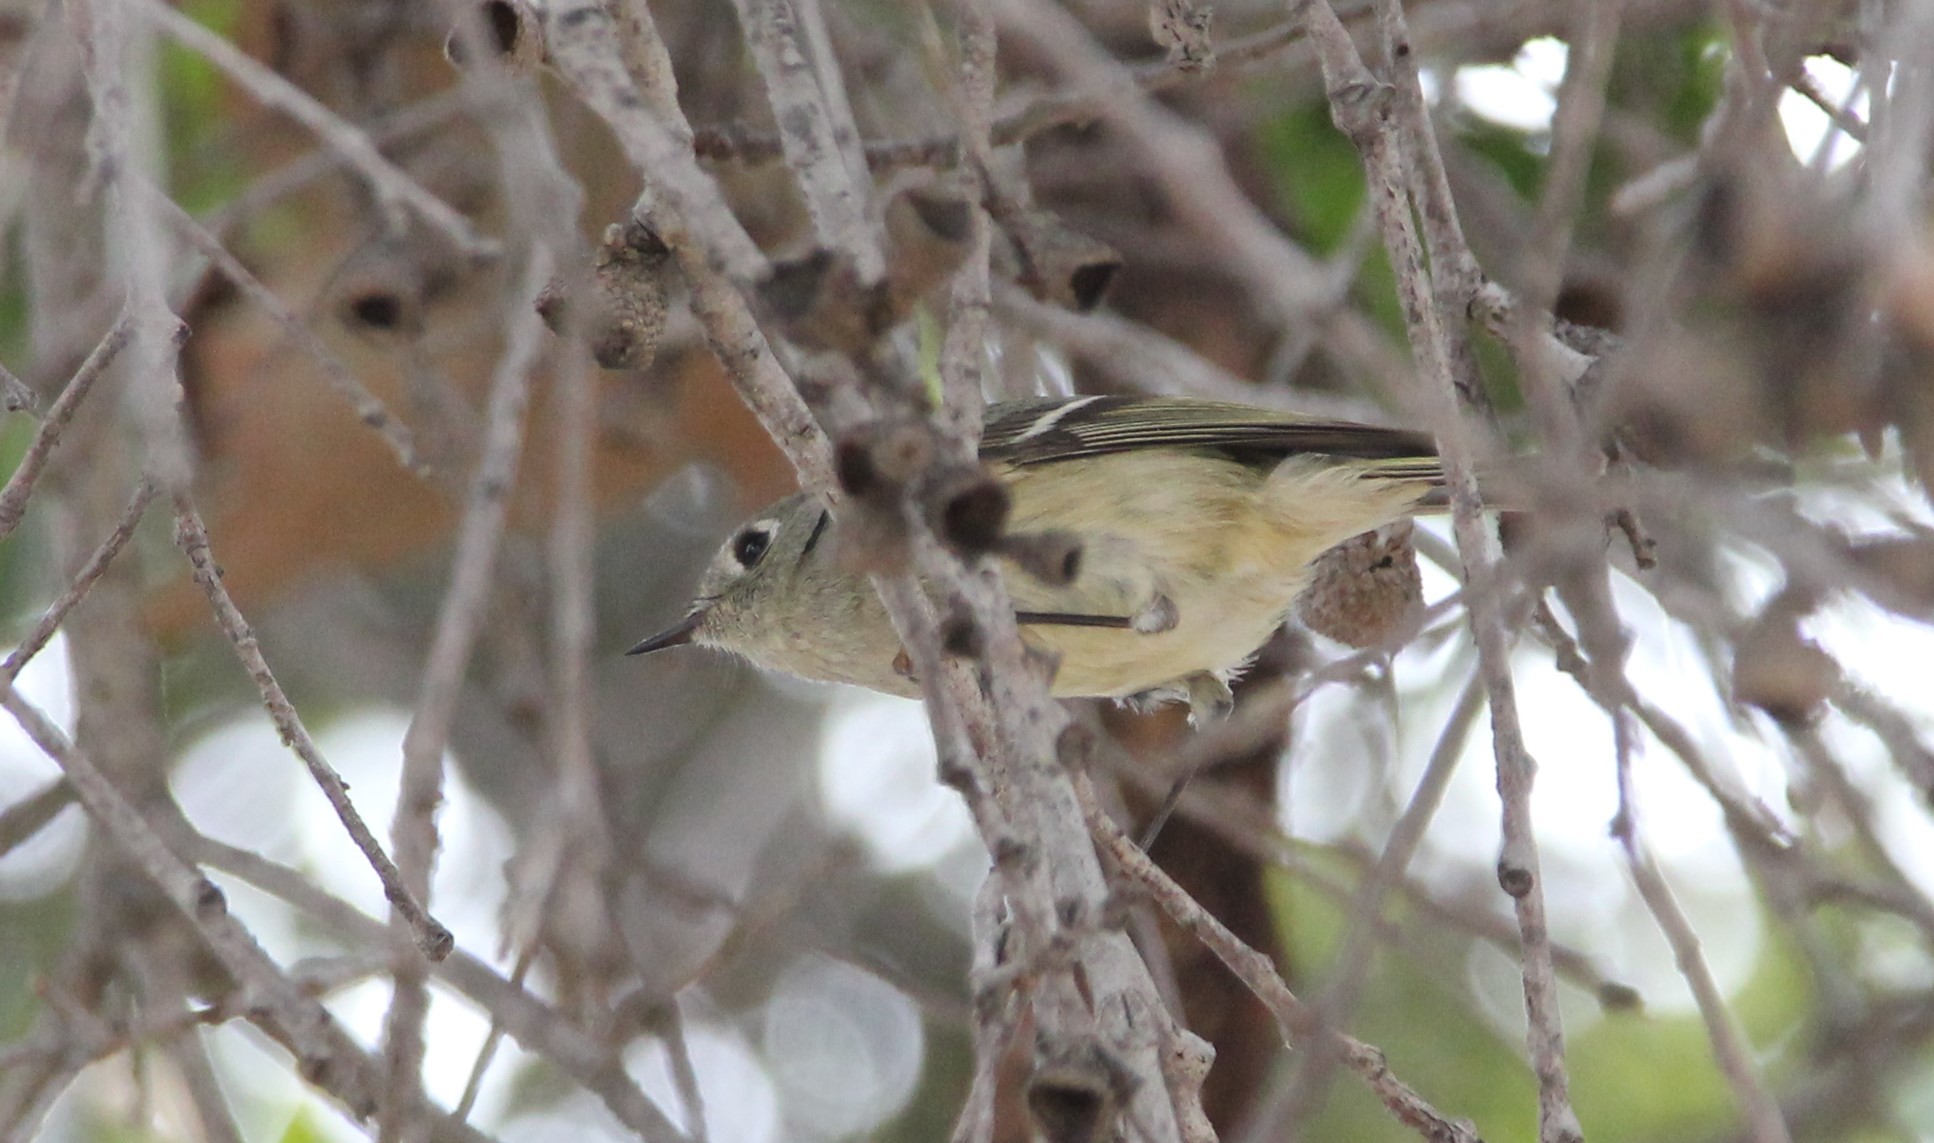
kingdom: Animalia
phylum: Chordata
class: Aves
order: Passeriformes
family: Regulidae
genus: Regulus
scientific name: Regulus calendula
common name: Ruby-crowned kinglet
